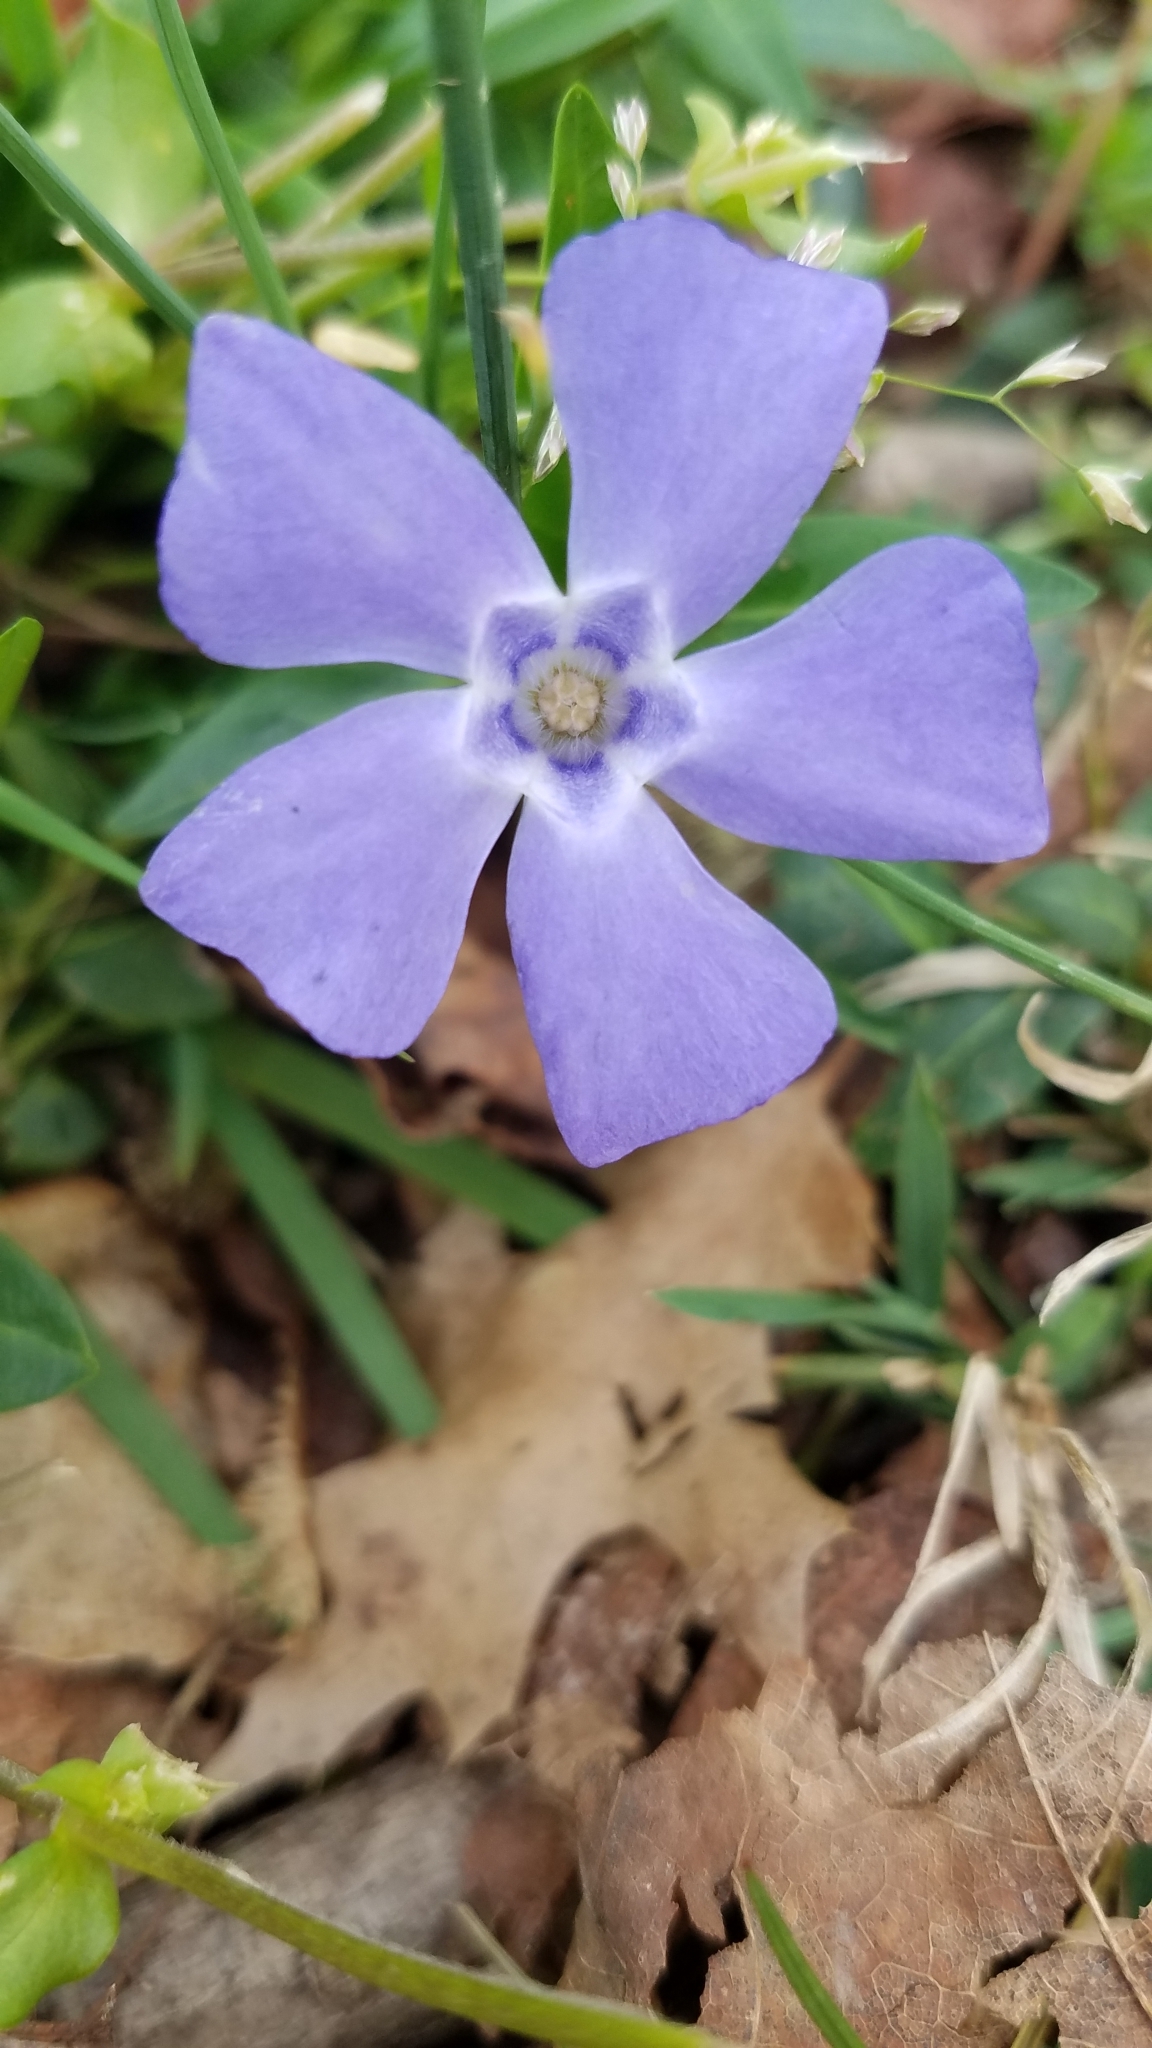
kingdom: Plantae
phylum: Tracheophyta
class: Magnoliopsida
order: Gentianales
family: Apocynaceae
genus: Vinca
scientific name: Vinca minor
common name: Lesser periwinkle
